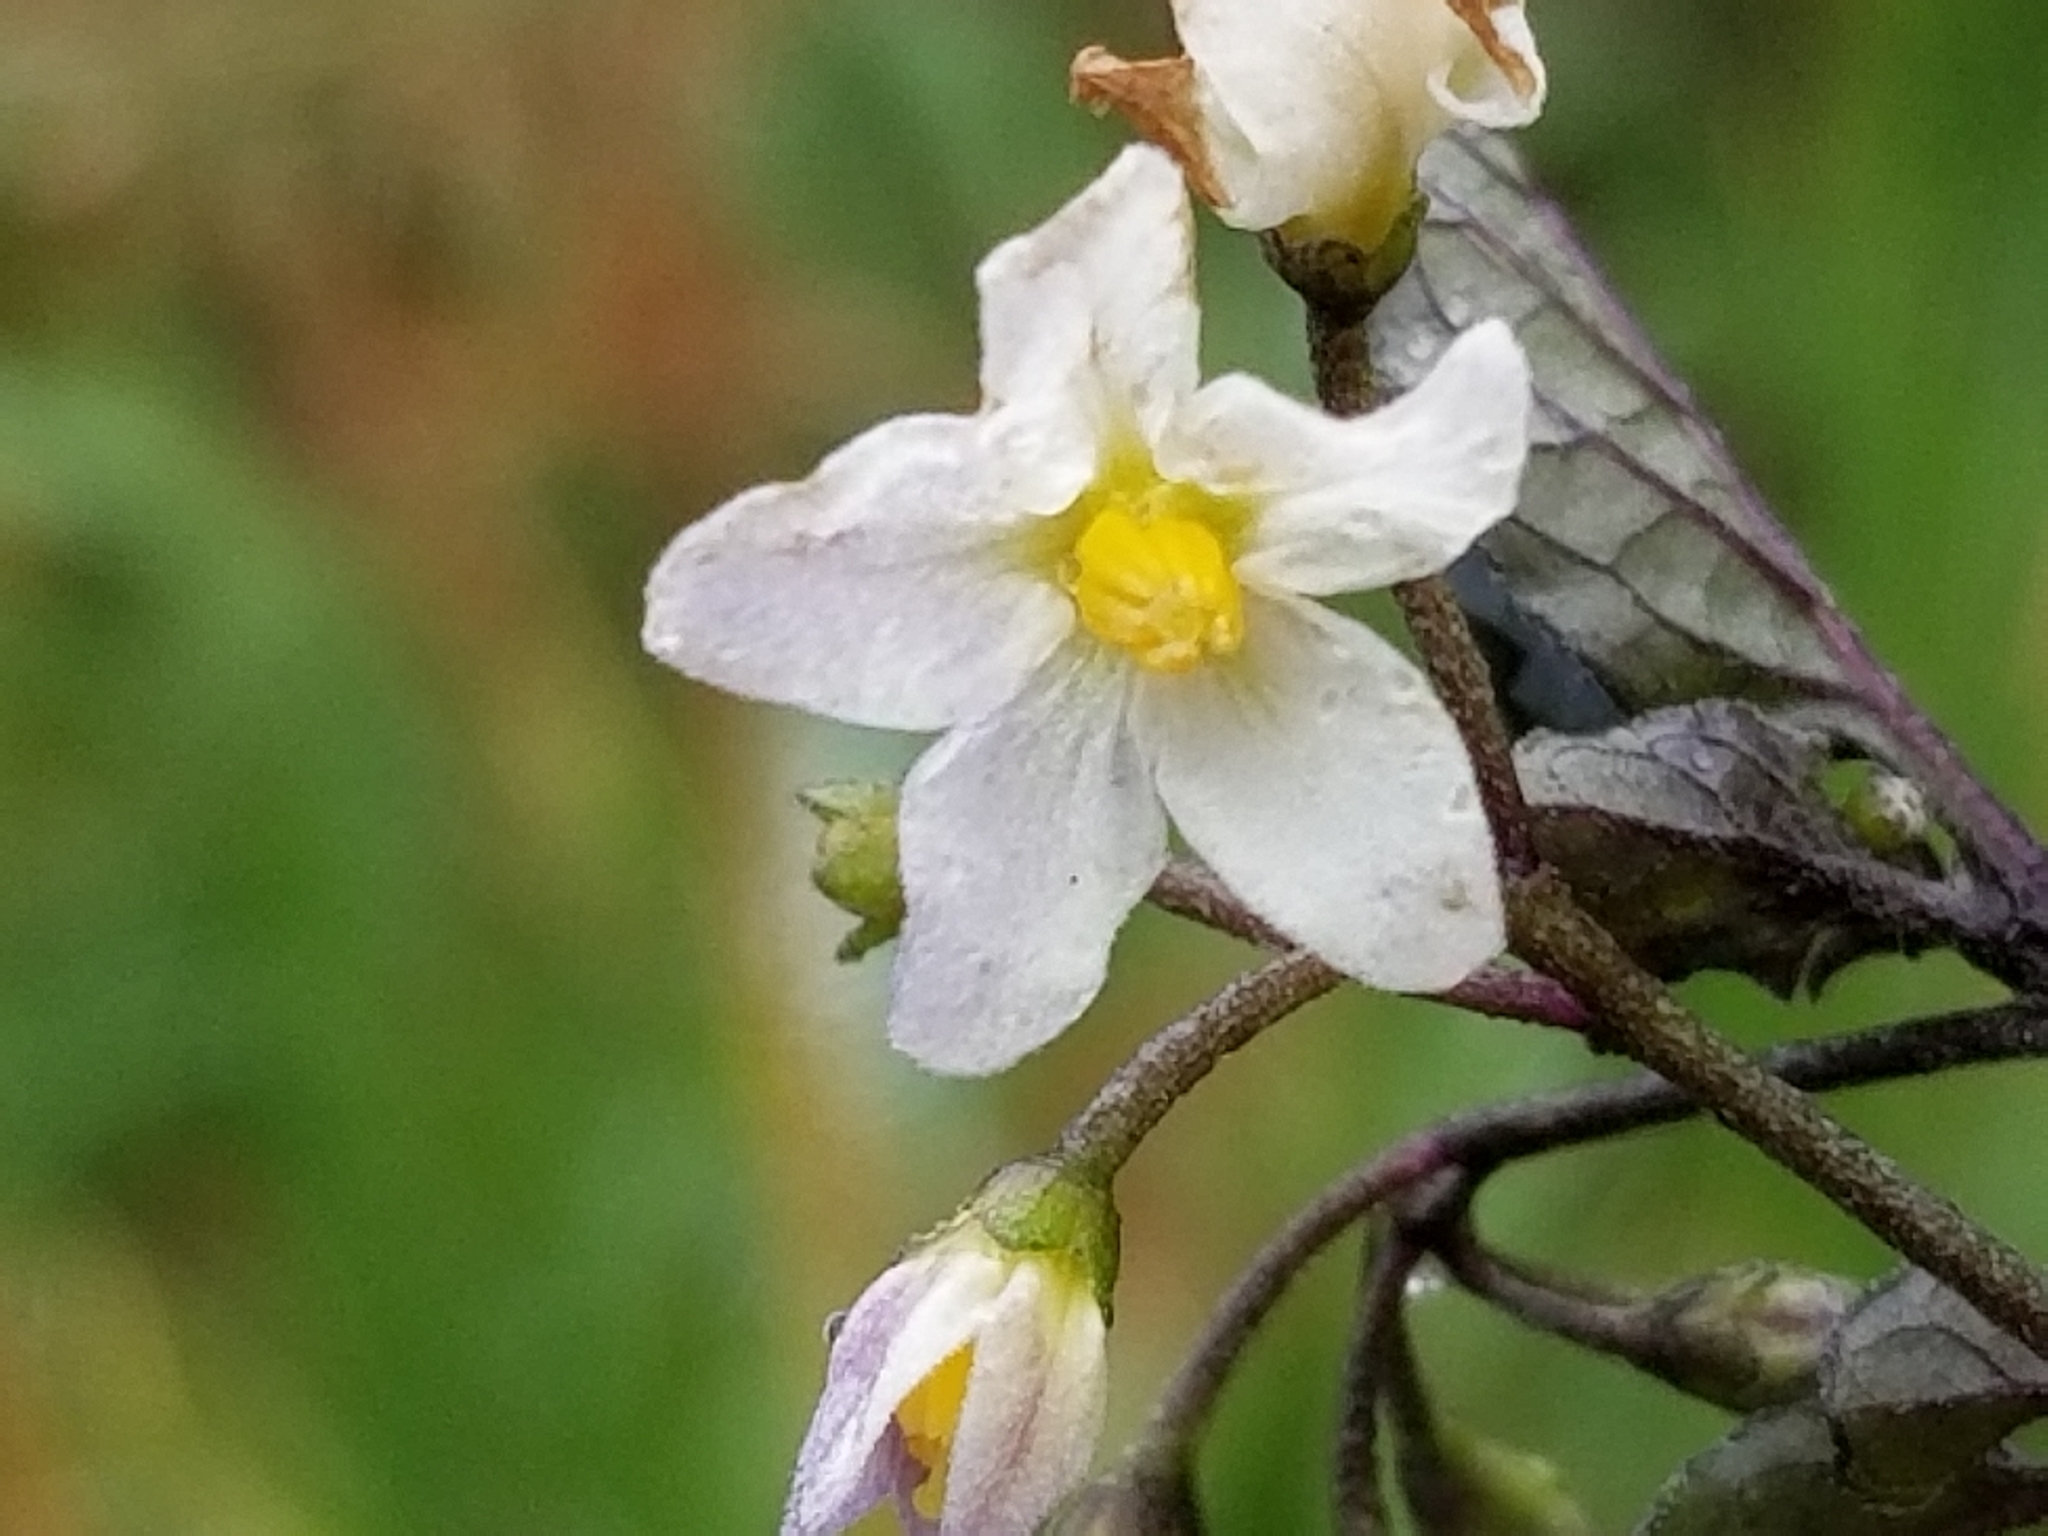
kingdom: Plantae
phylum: Tracheophyta
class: Magnoliopsida
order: Solanales
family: Solanaceae
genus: Solanum
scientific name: Solanum nigrum
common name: Black nightshade
